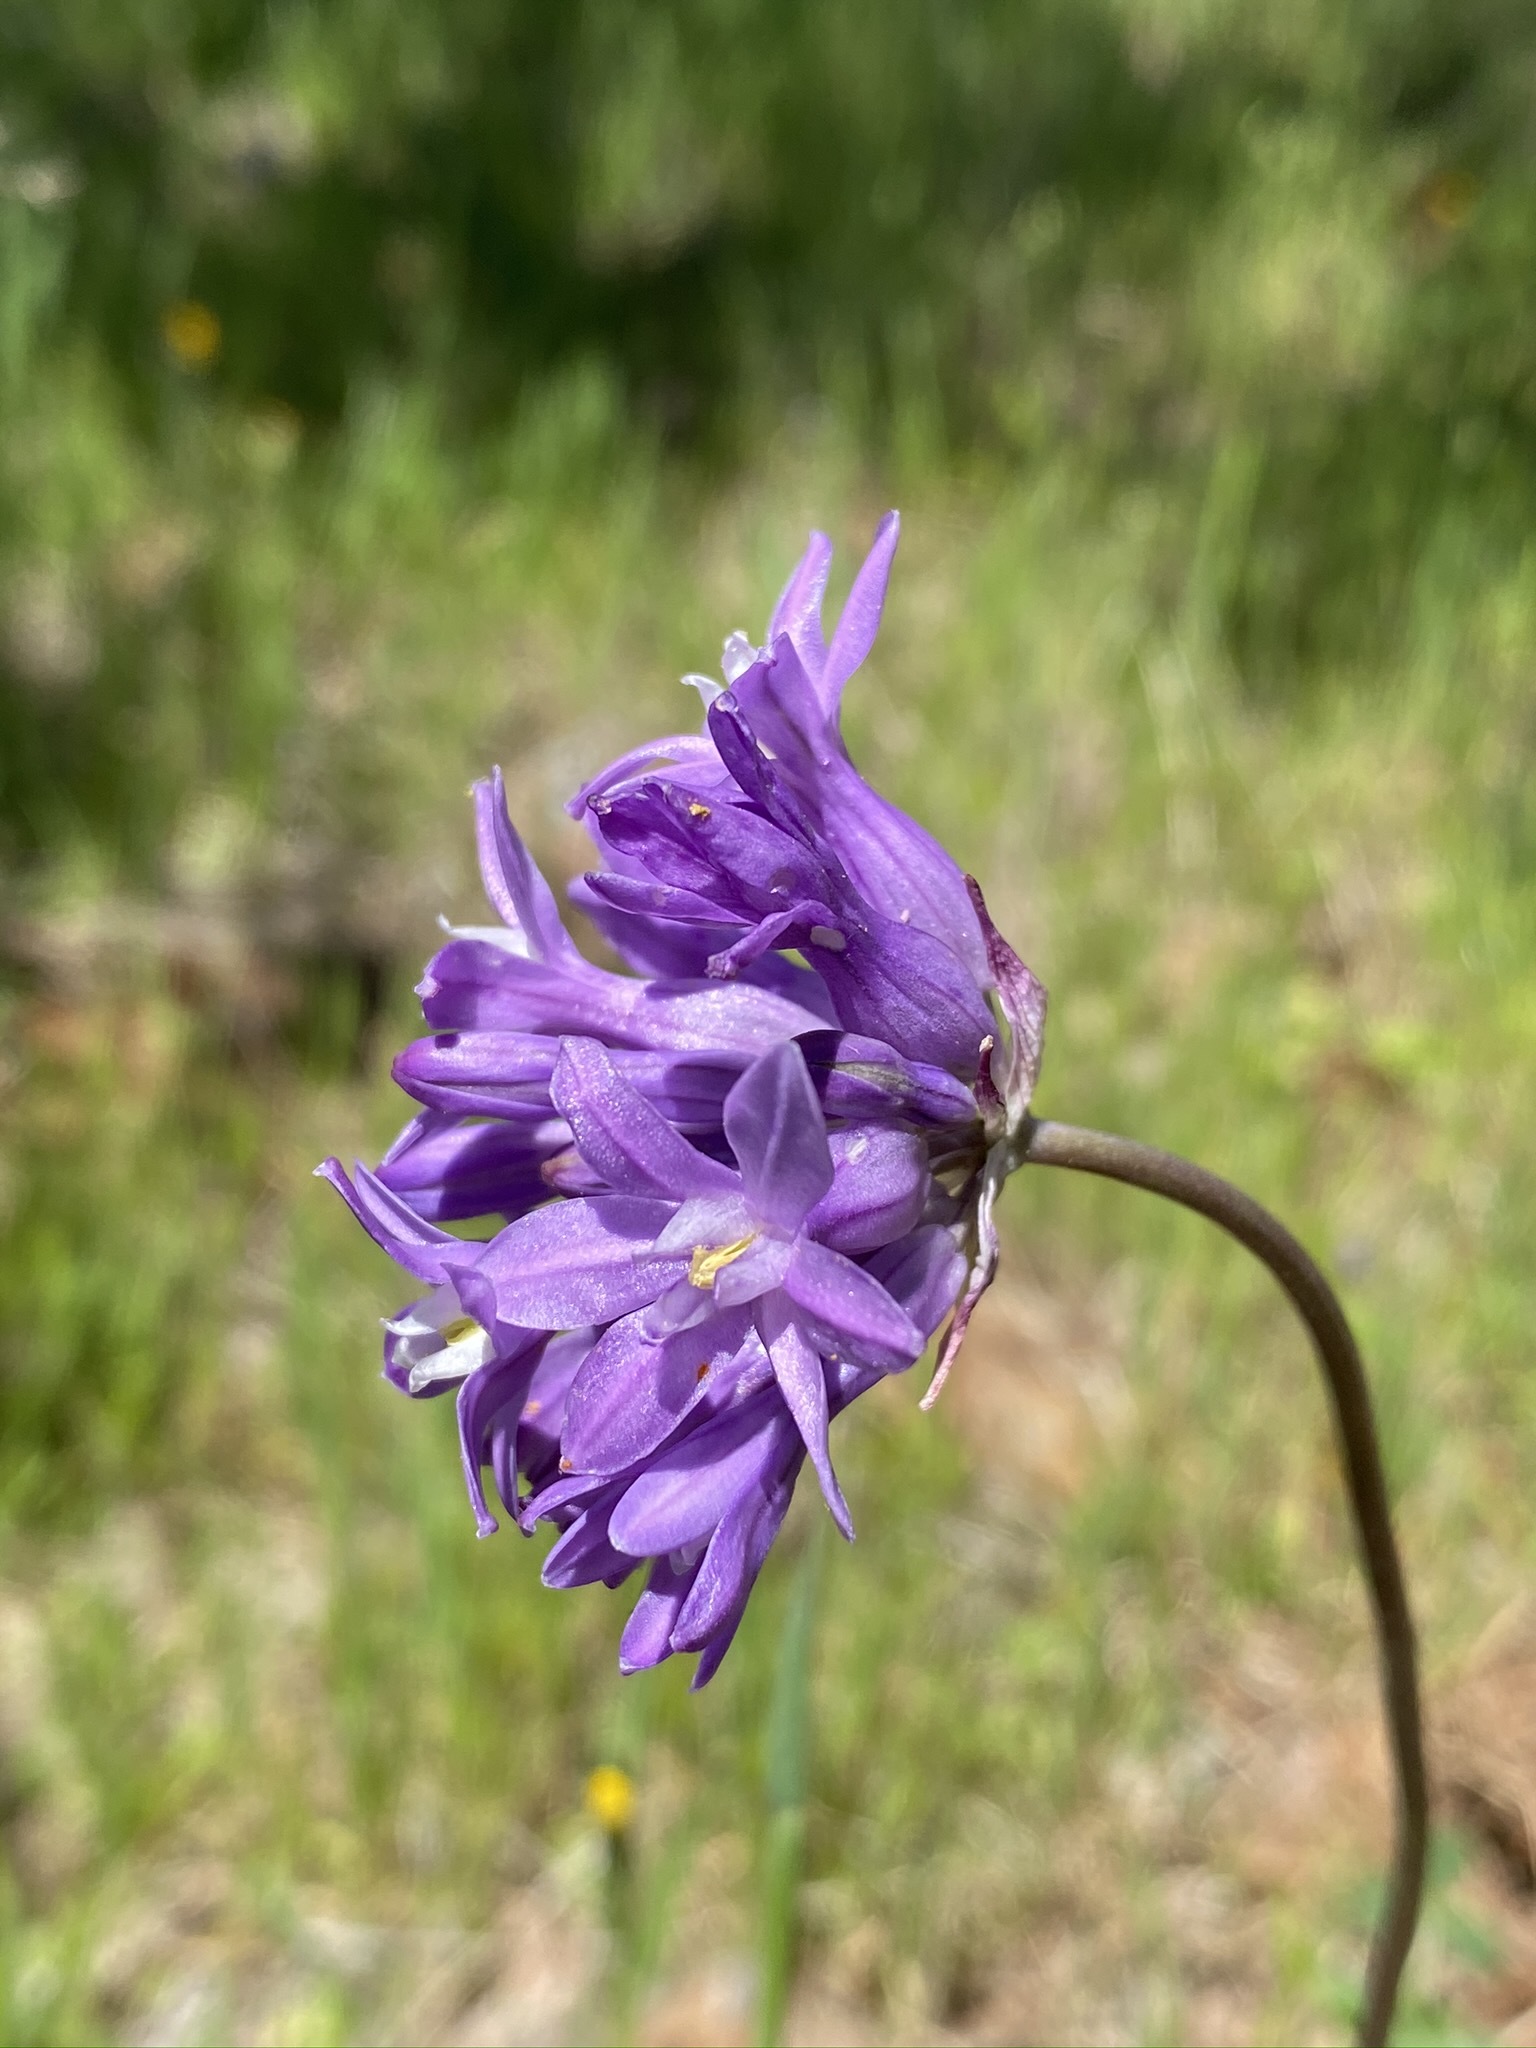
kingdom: Plantae
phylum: Tracheophyta
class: Liliopsida
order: Asparagales
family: Asparagaceae
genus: Dichelostemma
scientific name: Dichelostemma multiflorum
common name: Round-tooth ookow
